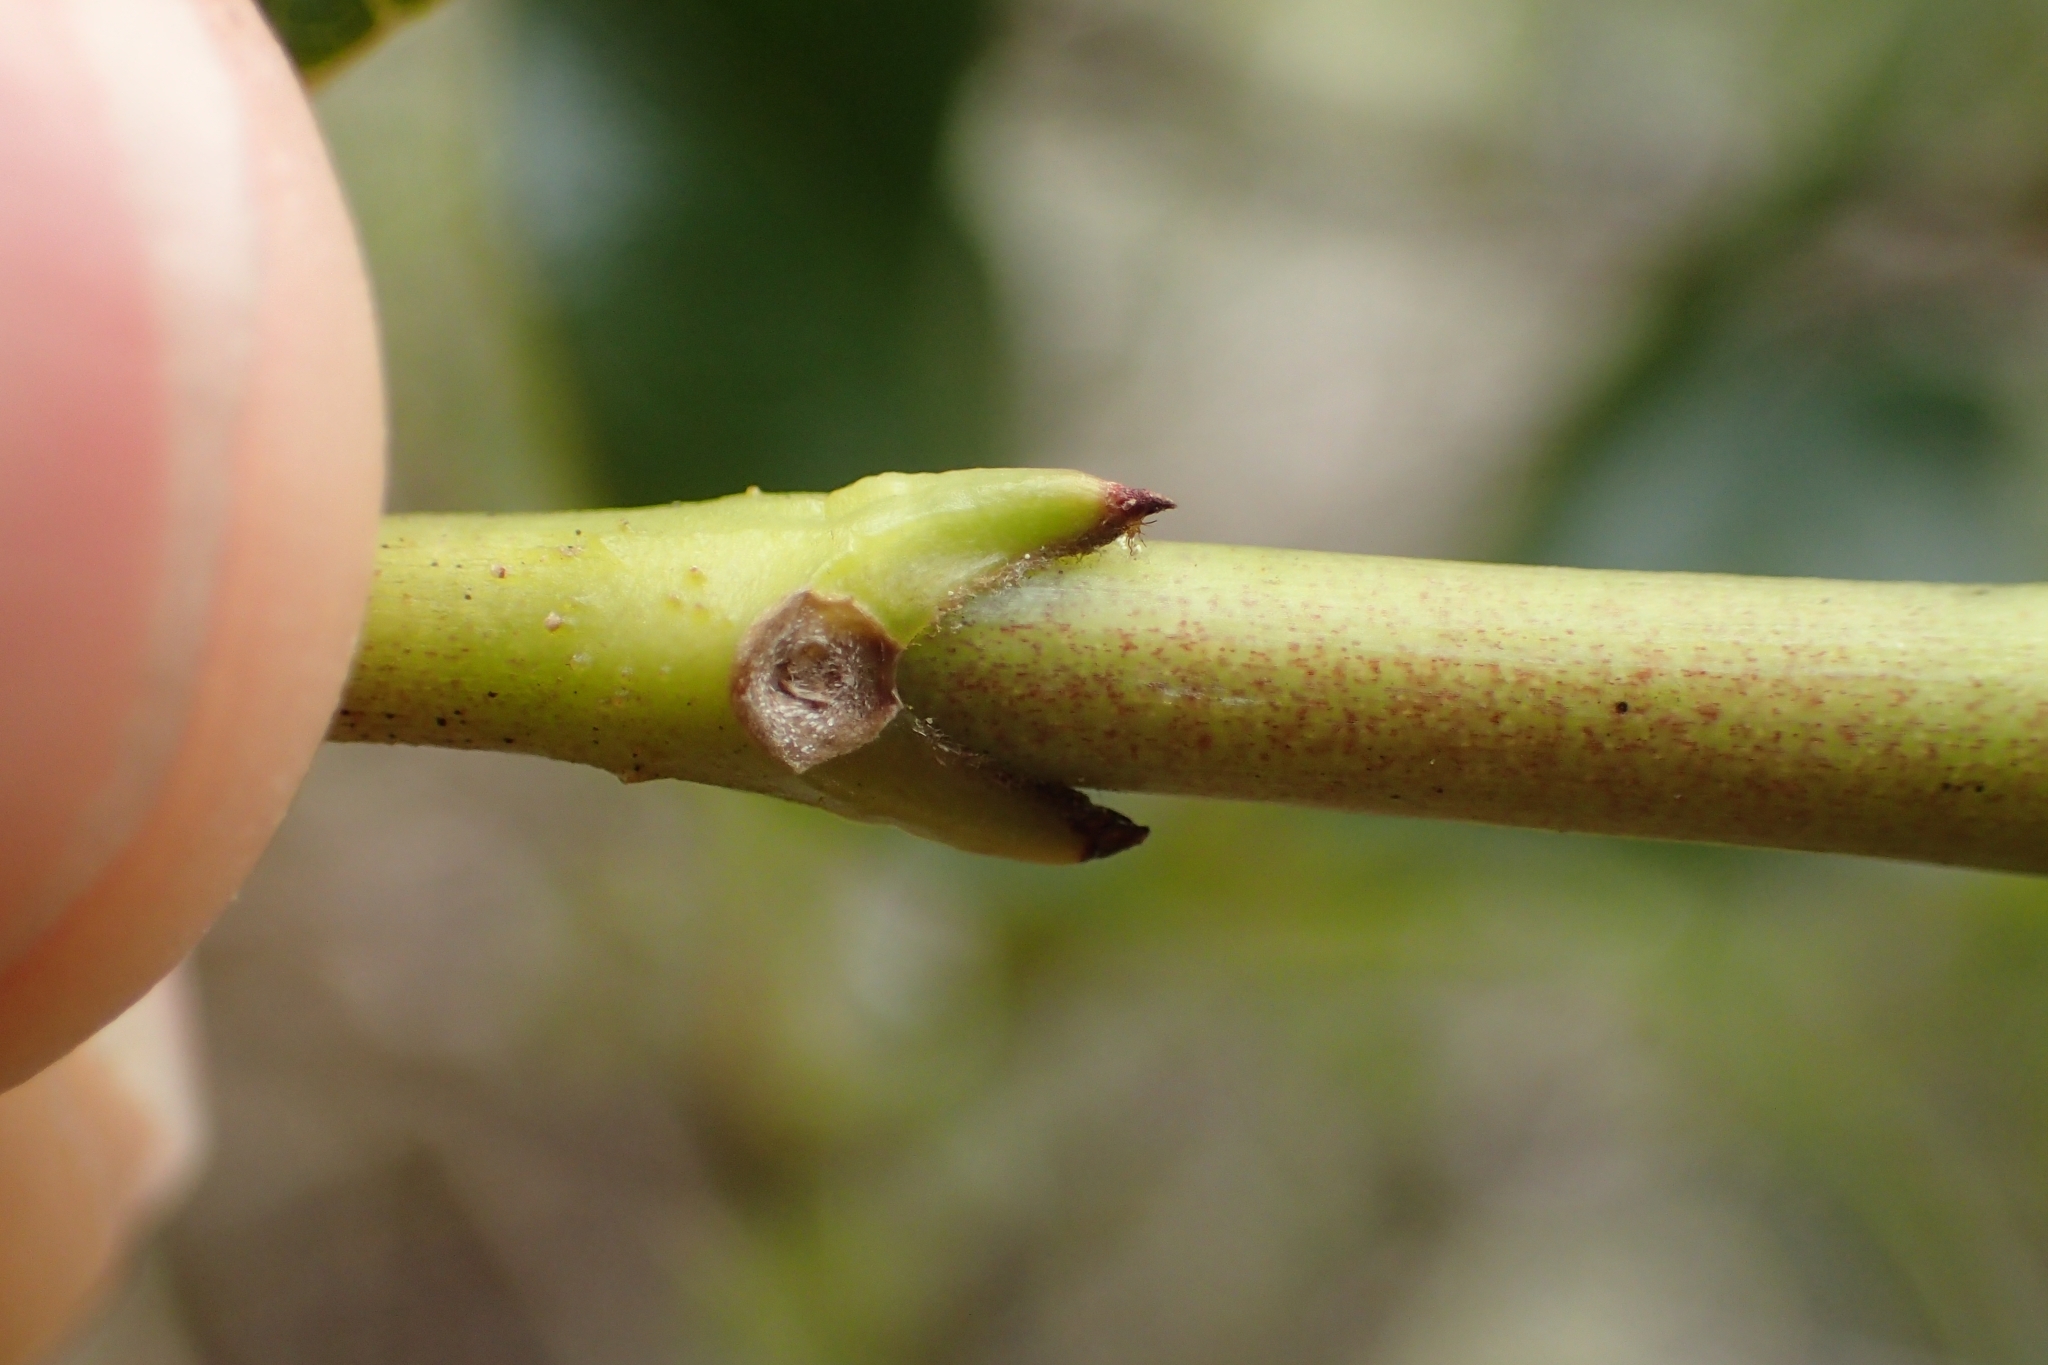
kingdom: Plantae
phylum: Tracheophyta
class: Magnoliopsida
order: Gentianales
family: Rubiaceae
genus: Coprosma
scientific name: Coprosma lucida
